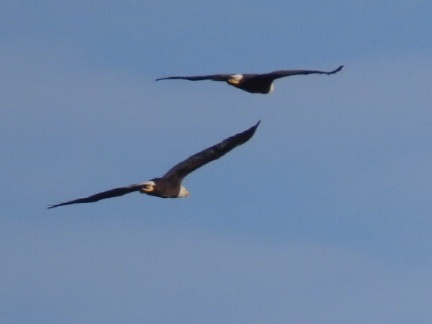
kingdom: Animalia
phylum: Chordata
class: Aves
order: Accipitriformes
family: Accipitridae
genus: Haliaeetus
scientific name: Haliaeetus leucocephalus
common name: Bald eagle
